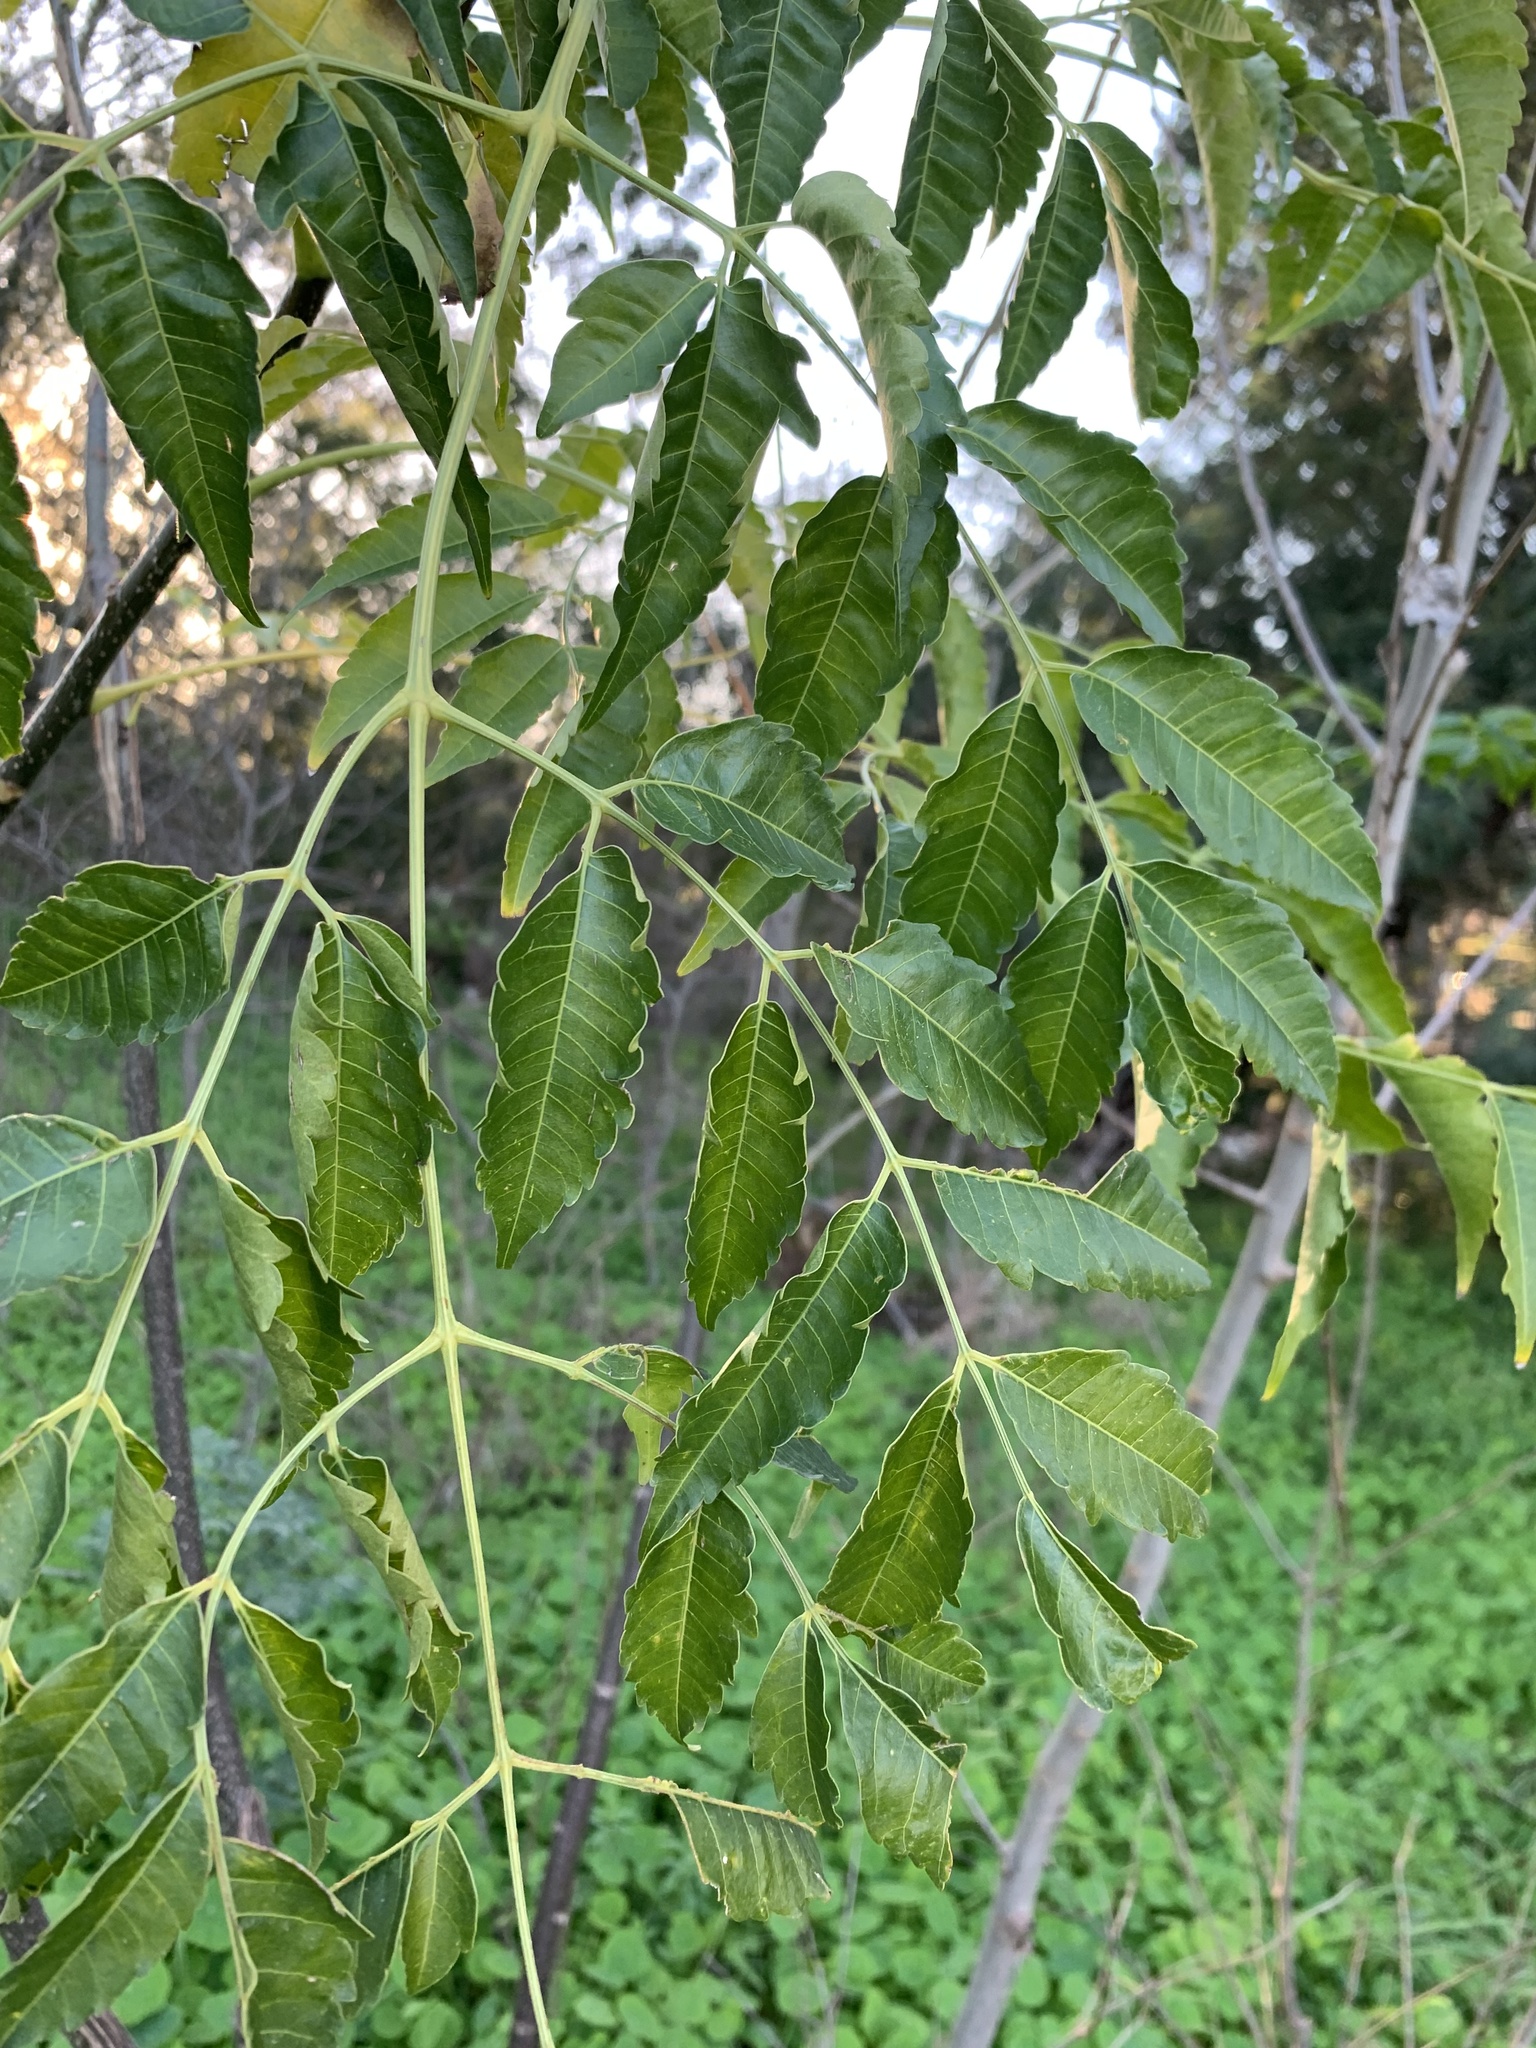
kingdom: Plantae
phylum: Tracheophyta
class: Magnoliopsida
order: Sapindales
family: Meliaceae
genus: Melia
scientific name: Melia azedarach
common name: Chinaberrytree
